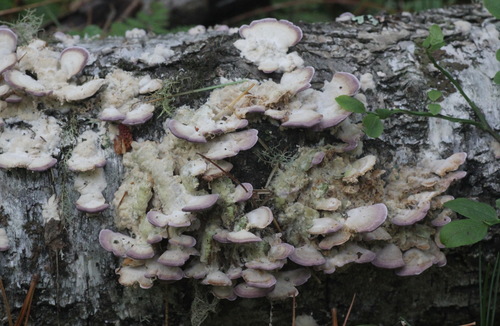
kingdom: Fungi
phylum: Basidiomycota
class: Agaricomycetes
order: Hymenochaetales
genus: Trichaptum
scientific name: Trichaptum biforme
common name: Violet-toothed polypore
